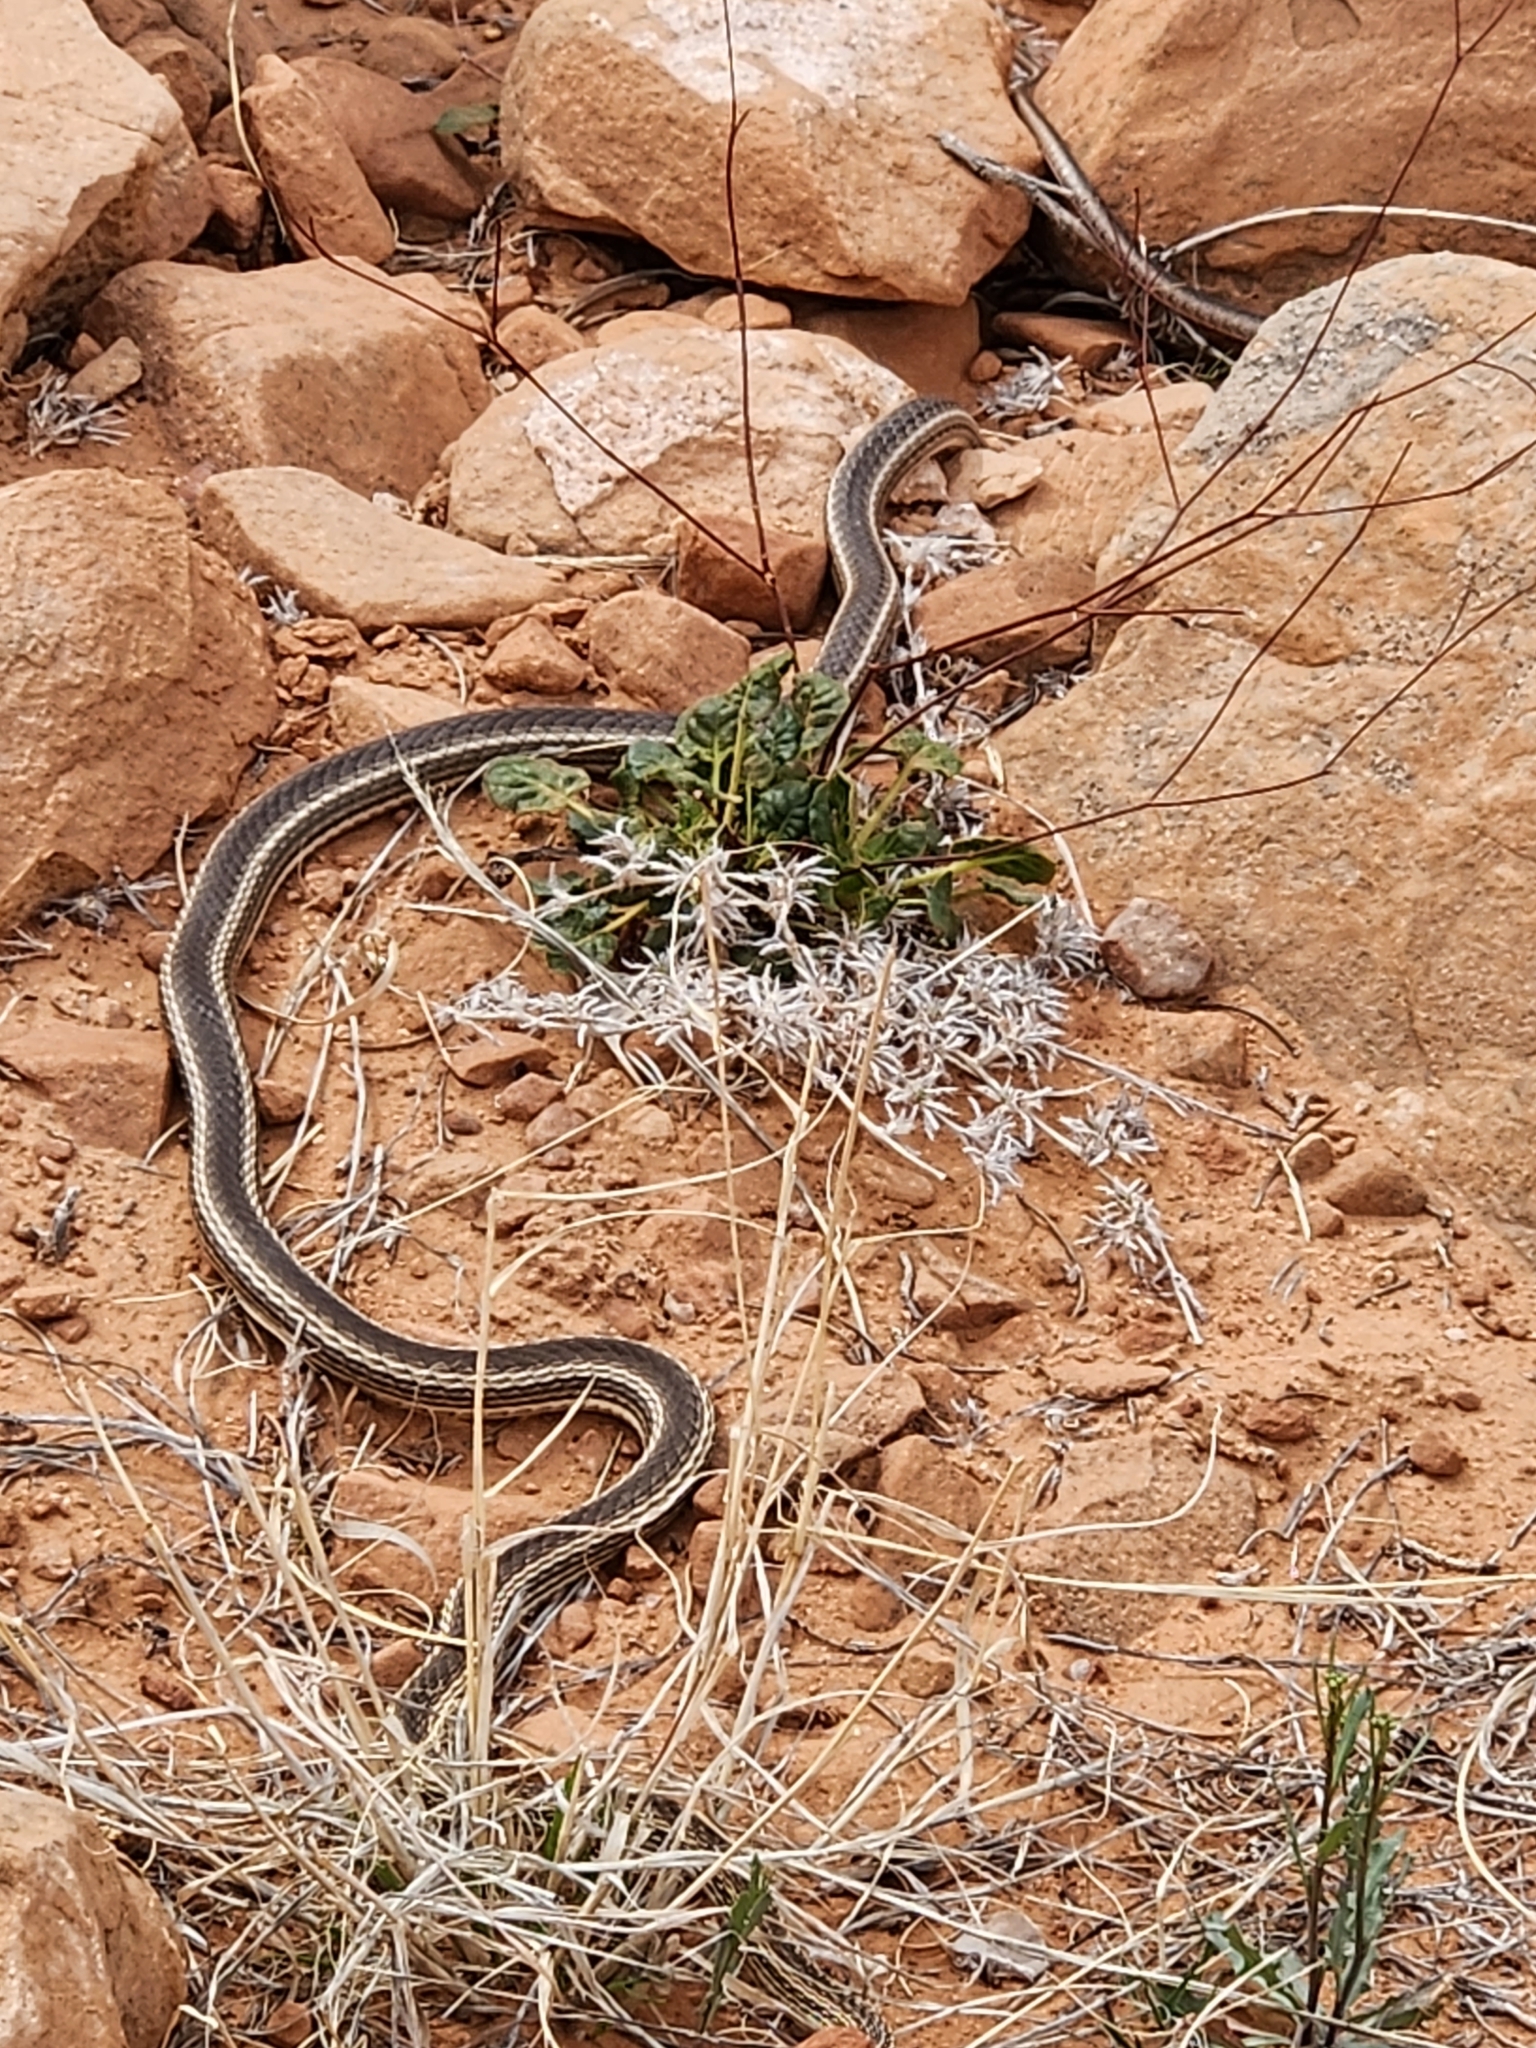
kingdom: Animalia
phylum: Chordata
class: Squamata
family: Colubridae
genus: Masticophis
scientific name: Masticophis taeniatus
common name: Striped whipsnake
